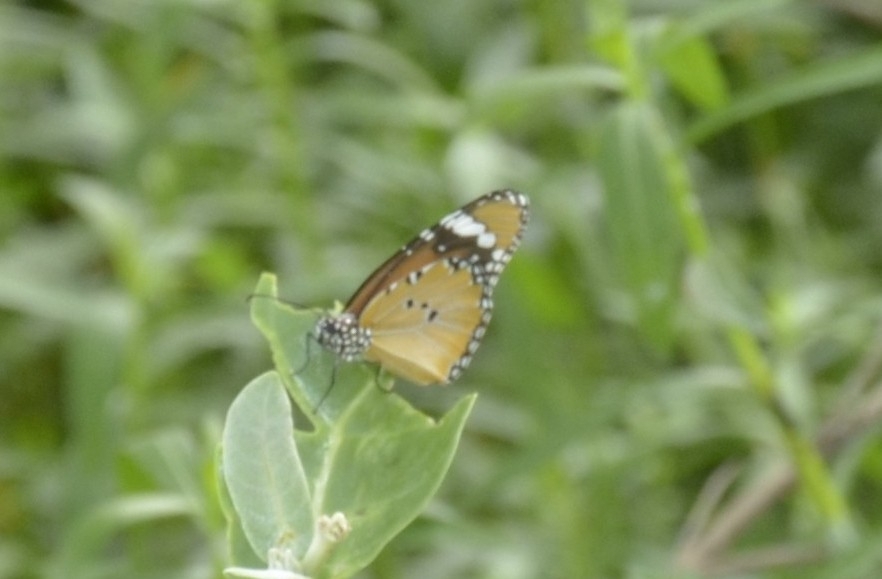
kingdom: Animalia
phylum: Arthropoda
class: Insecta
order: Lepidoptera
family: Nymphalidae
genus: Danaus
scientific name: Danaus chrysippus
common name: Plain tiger
